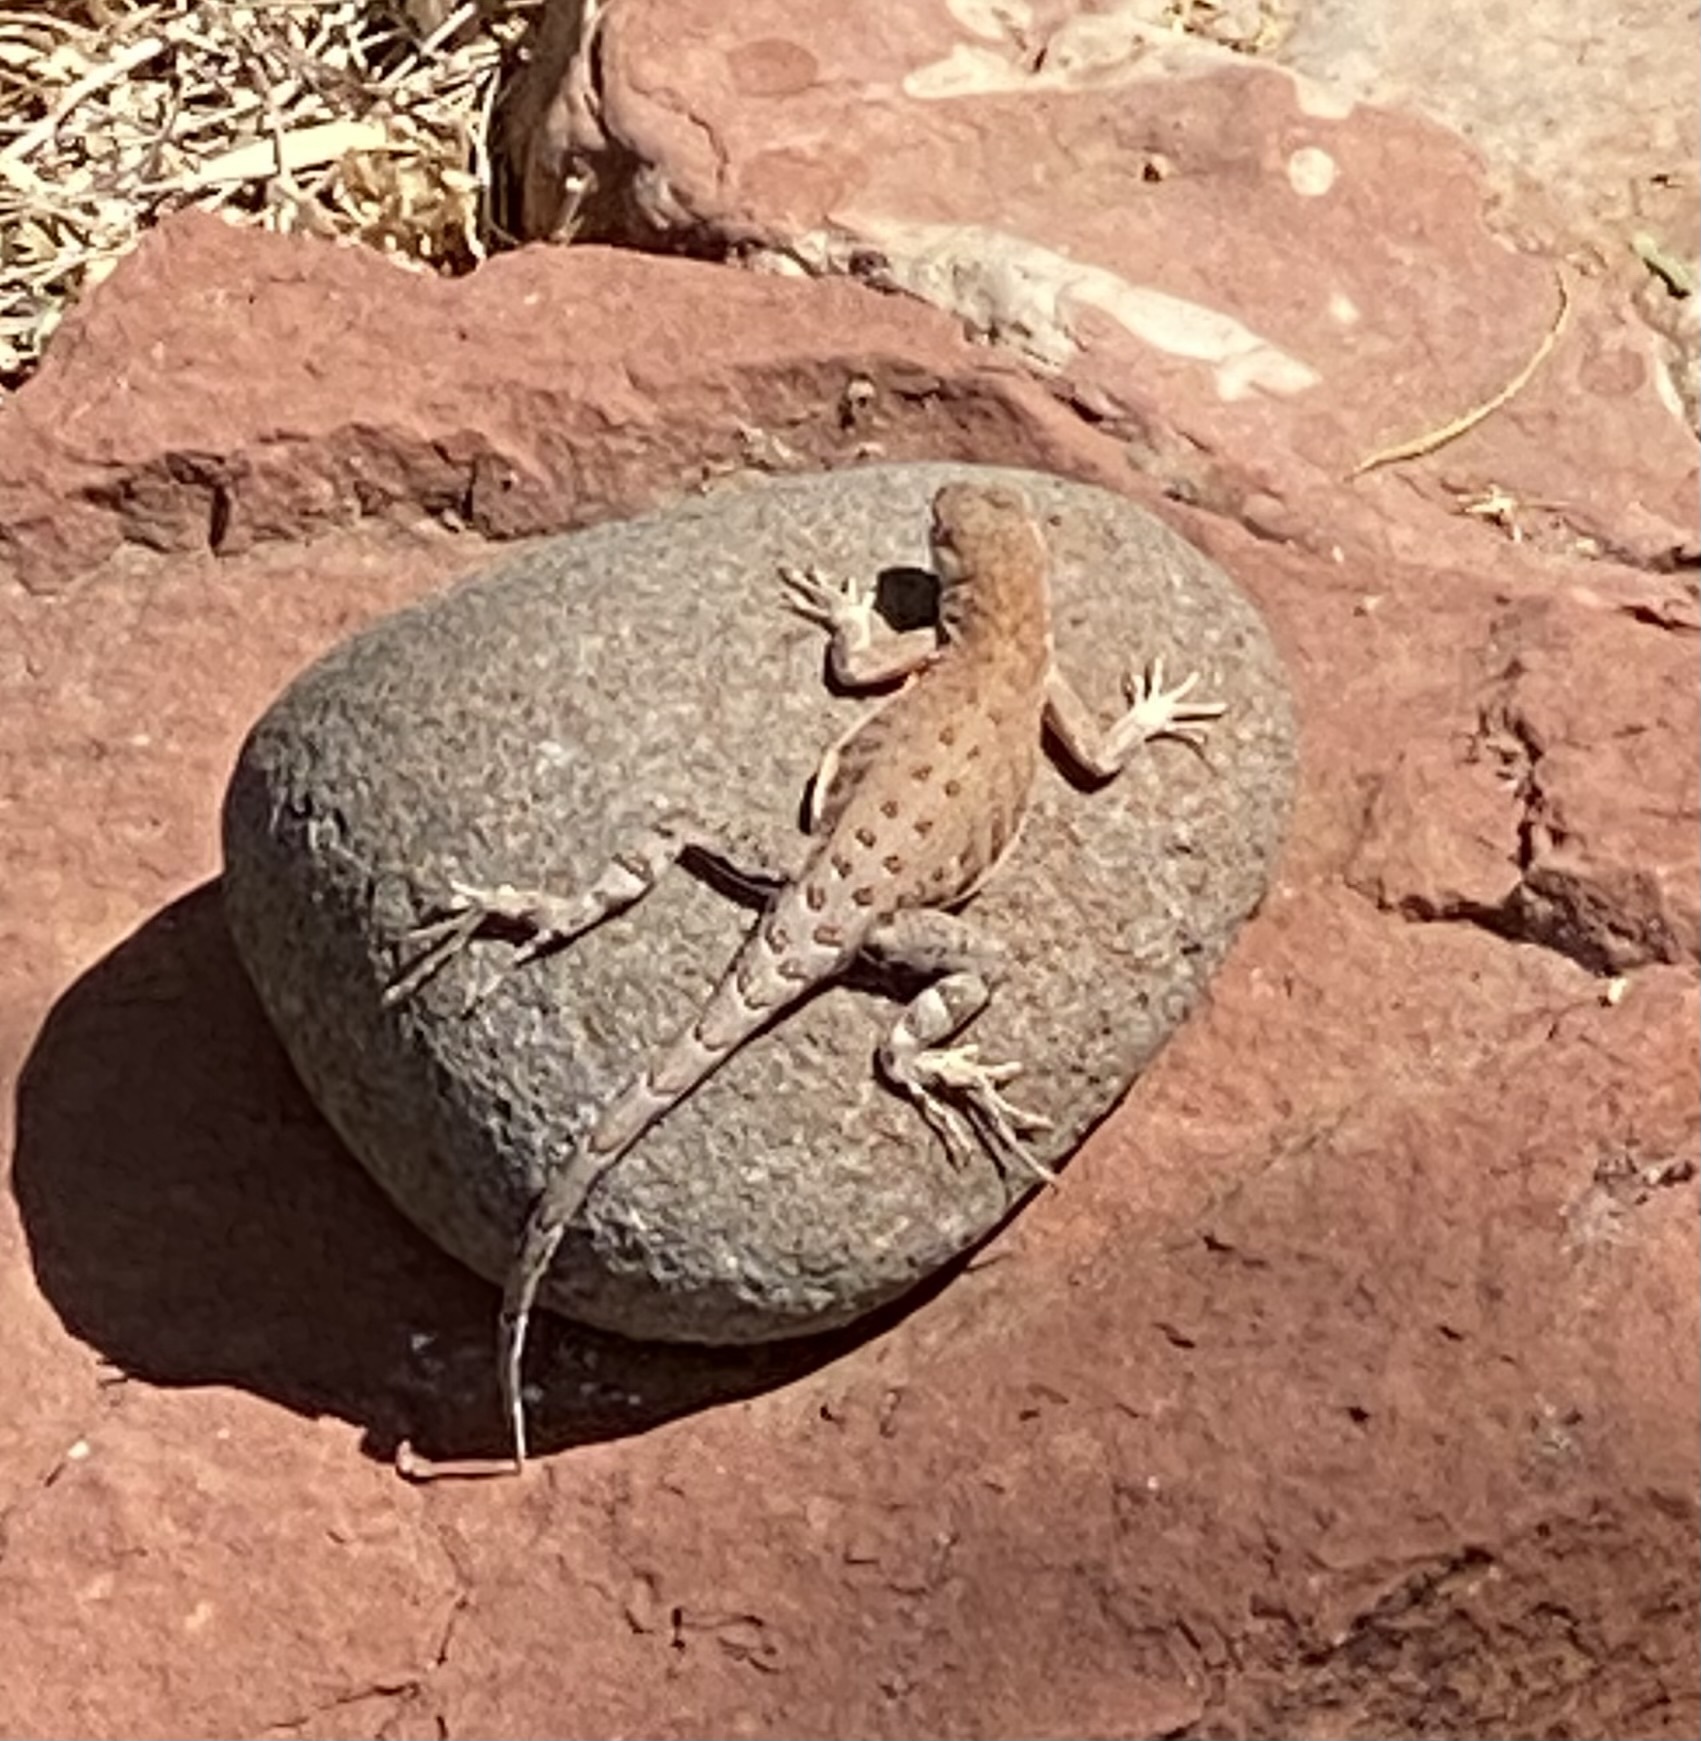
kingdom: Animalia
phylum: Chordata
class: Squamata
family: Phrynosomatidae
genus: Cophosaurus
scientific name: Cophosaurus texanus
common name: Greater earless lizard
